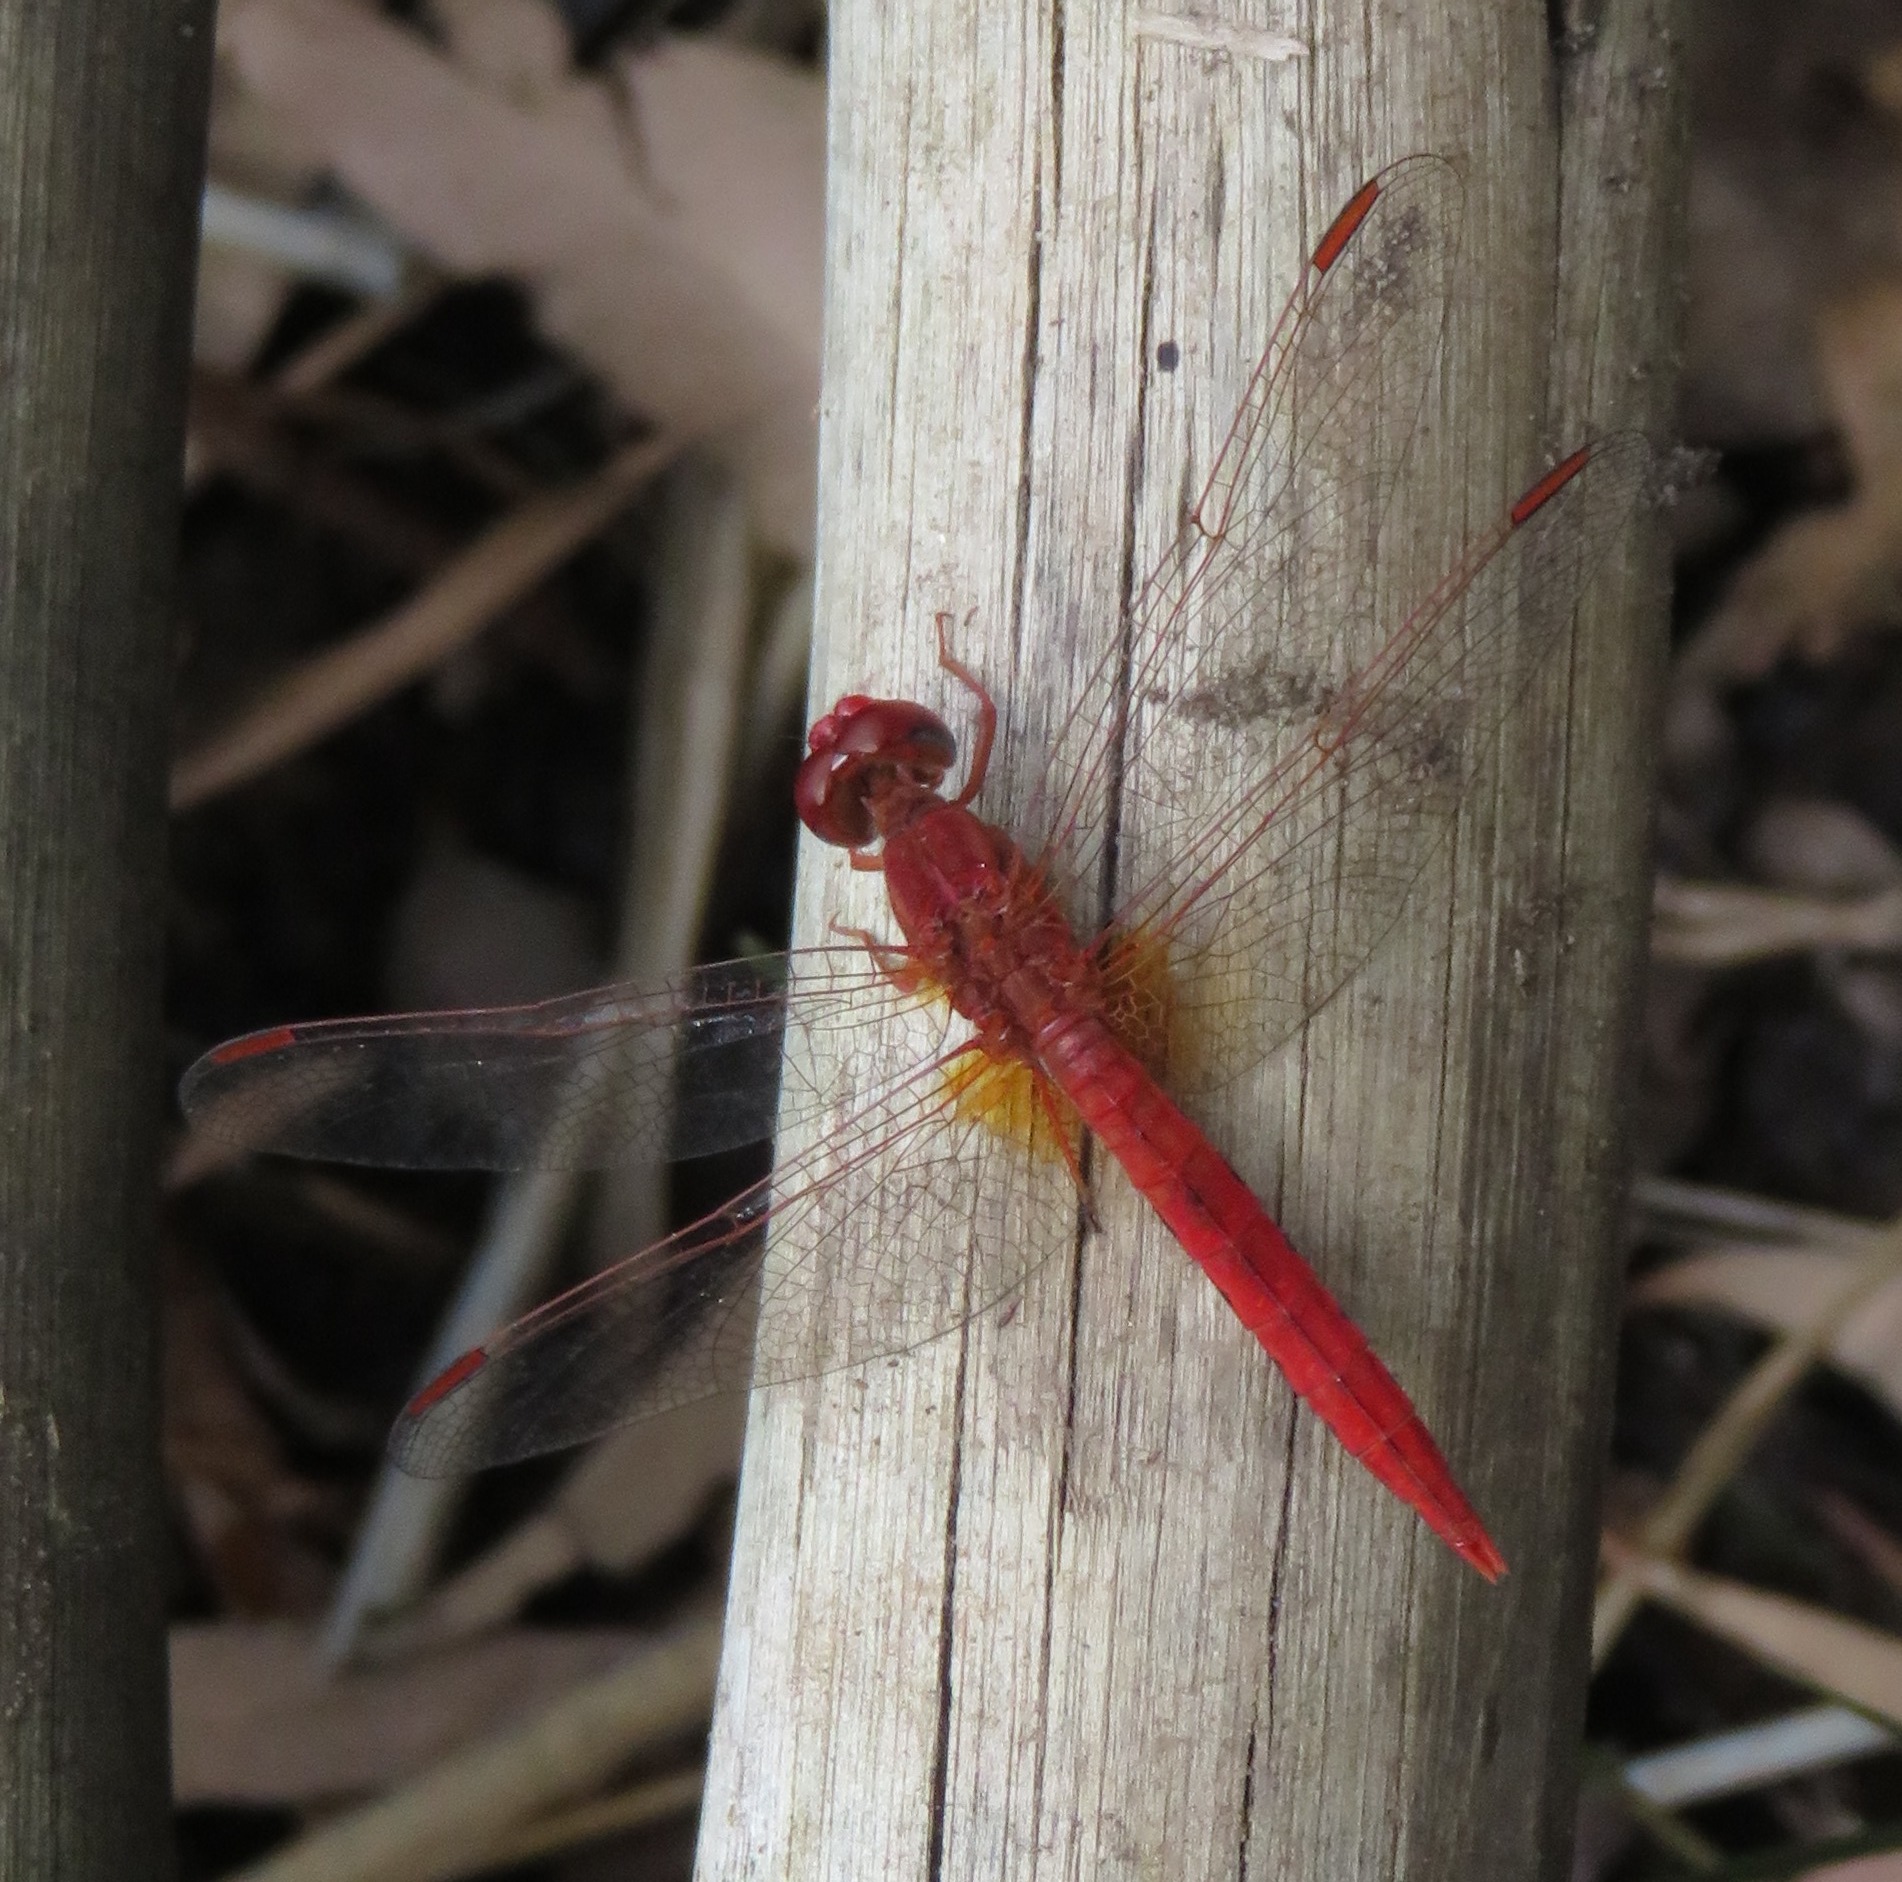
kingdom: Animalia
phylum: Arthropoda
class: Insecta
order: Odonata
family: Libellulidae
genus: Crocothemis
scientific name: Crocothemis sanguinolenta
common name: Little scarlet
